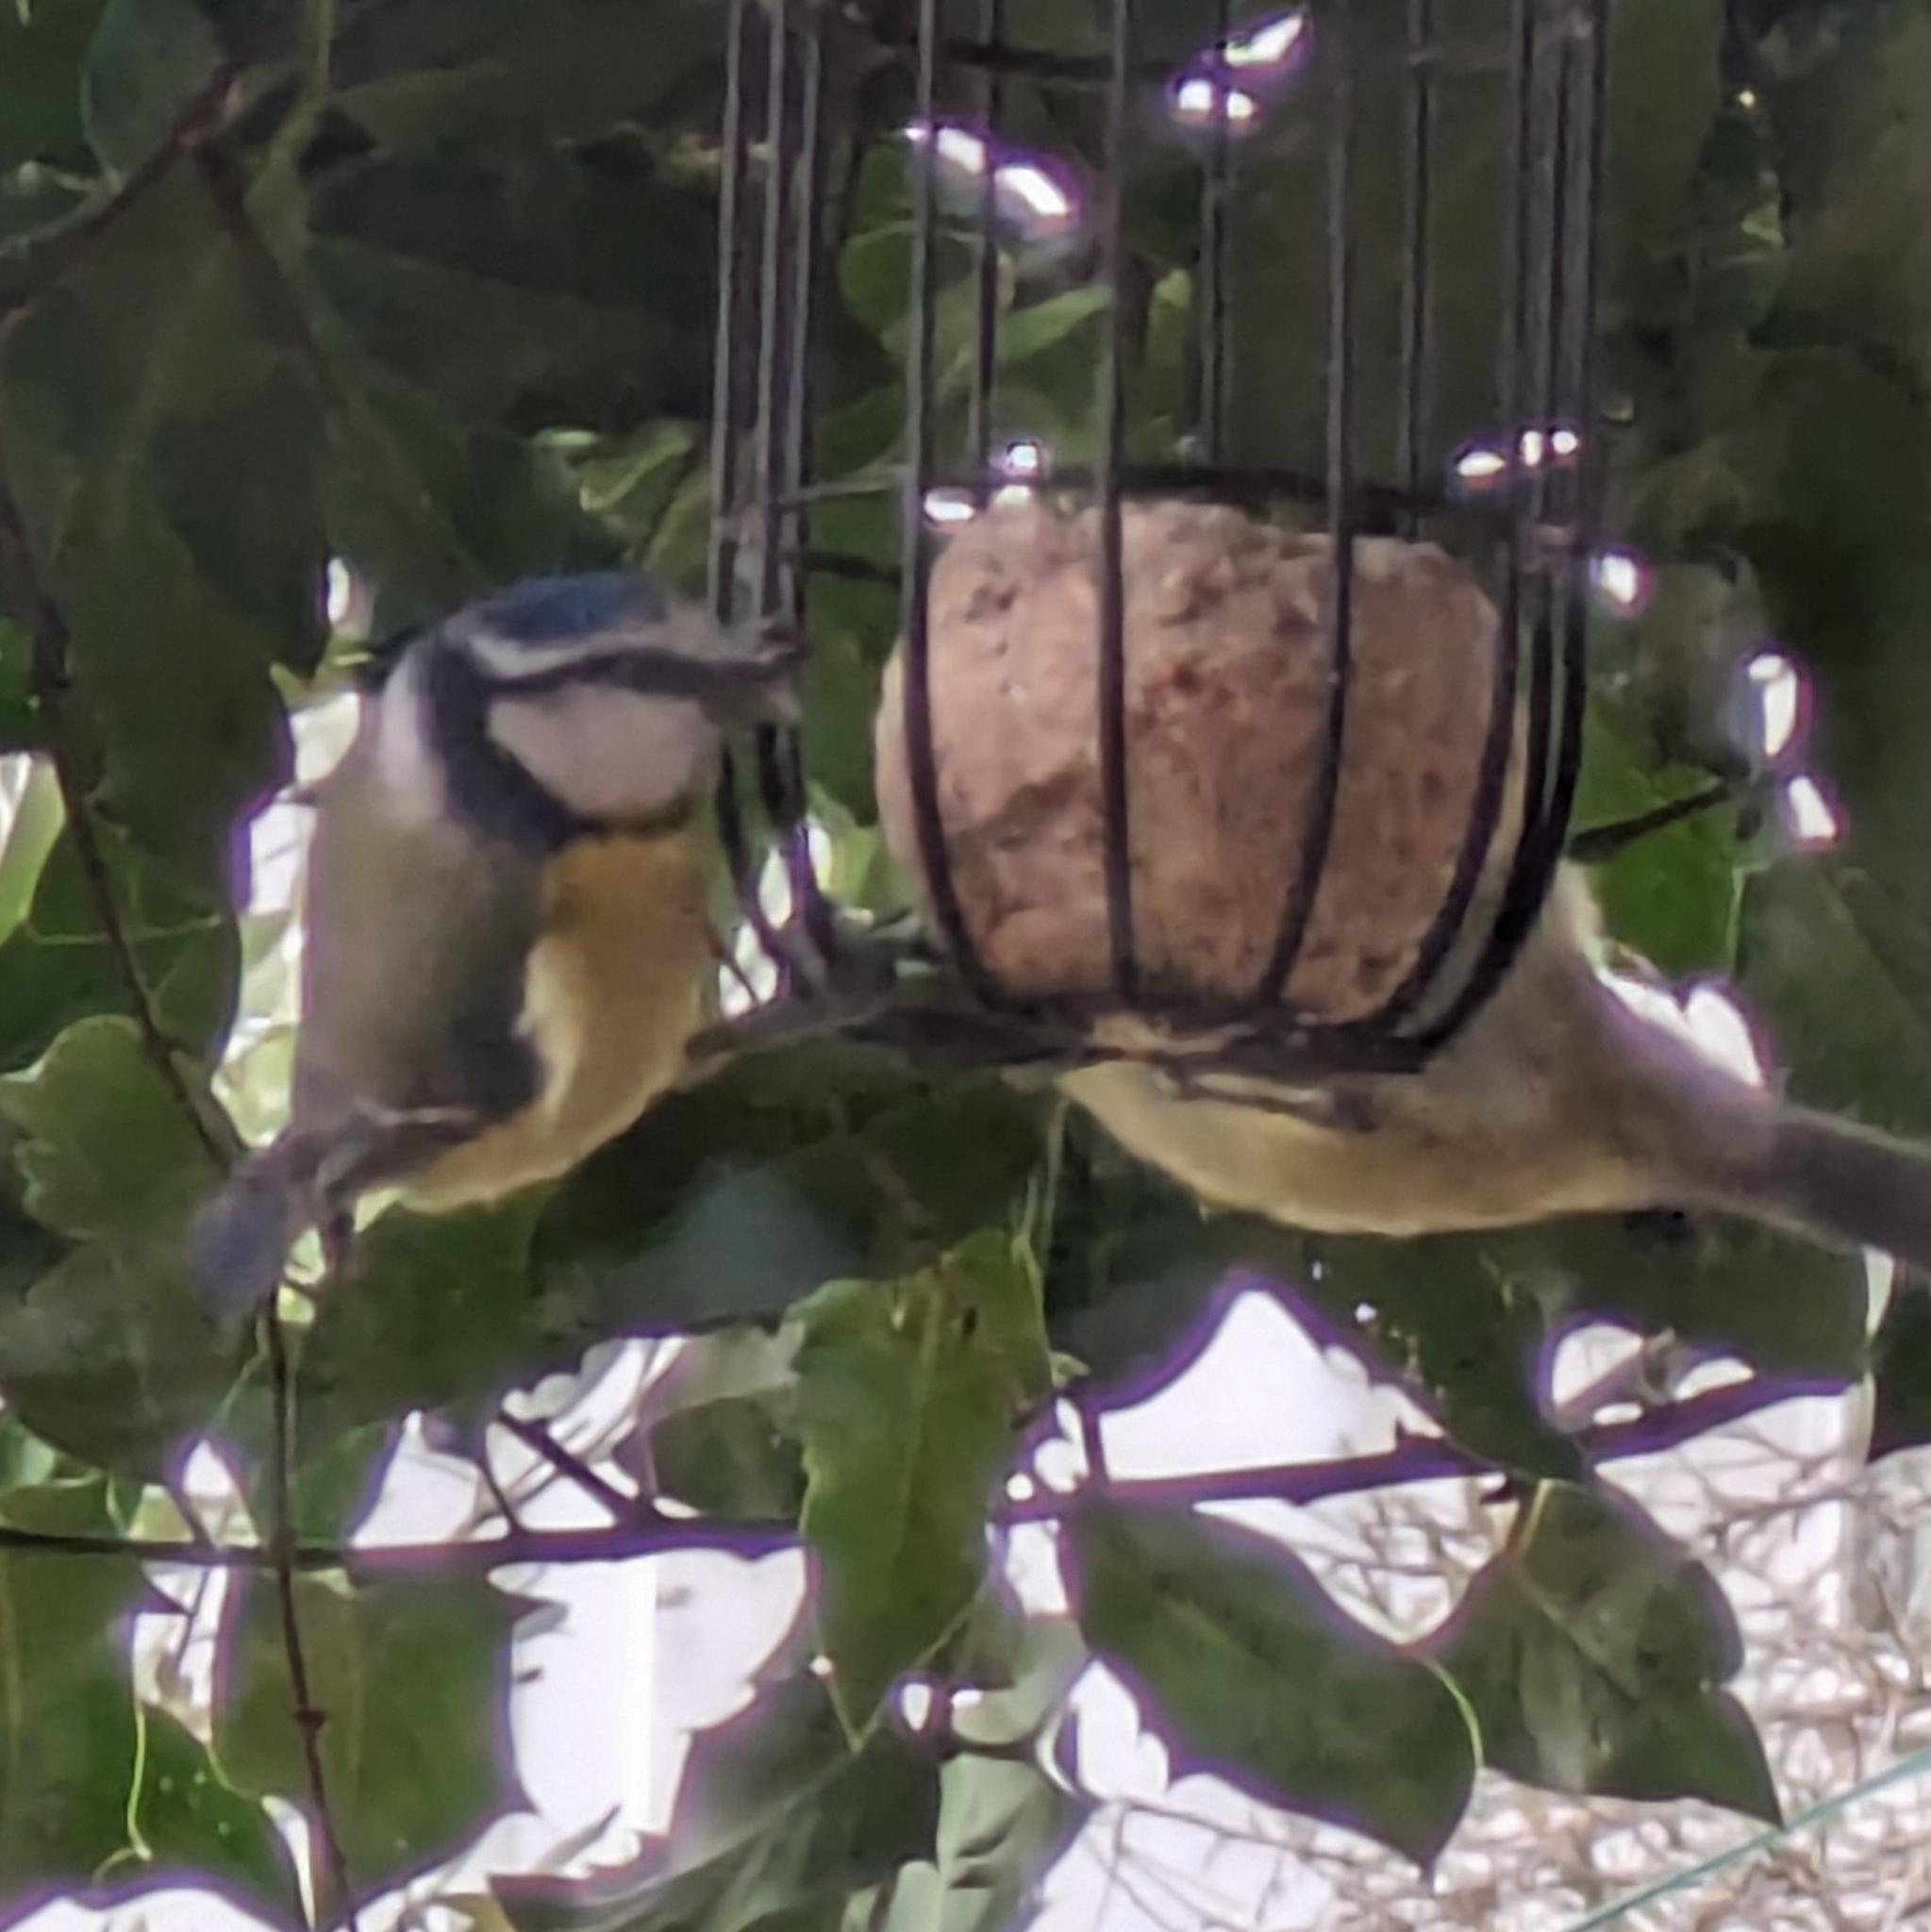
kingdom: Animalia
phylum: Chordata
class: Aves
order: Passeriformes
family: Paridae
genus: Cyanistes
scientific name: Cyanistes caeruleus
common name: Eurasian blue tit
